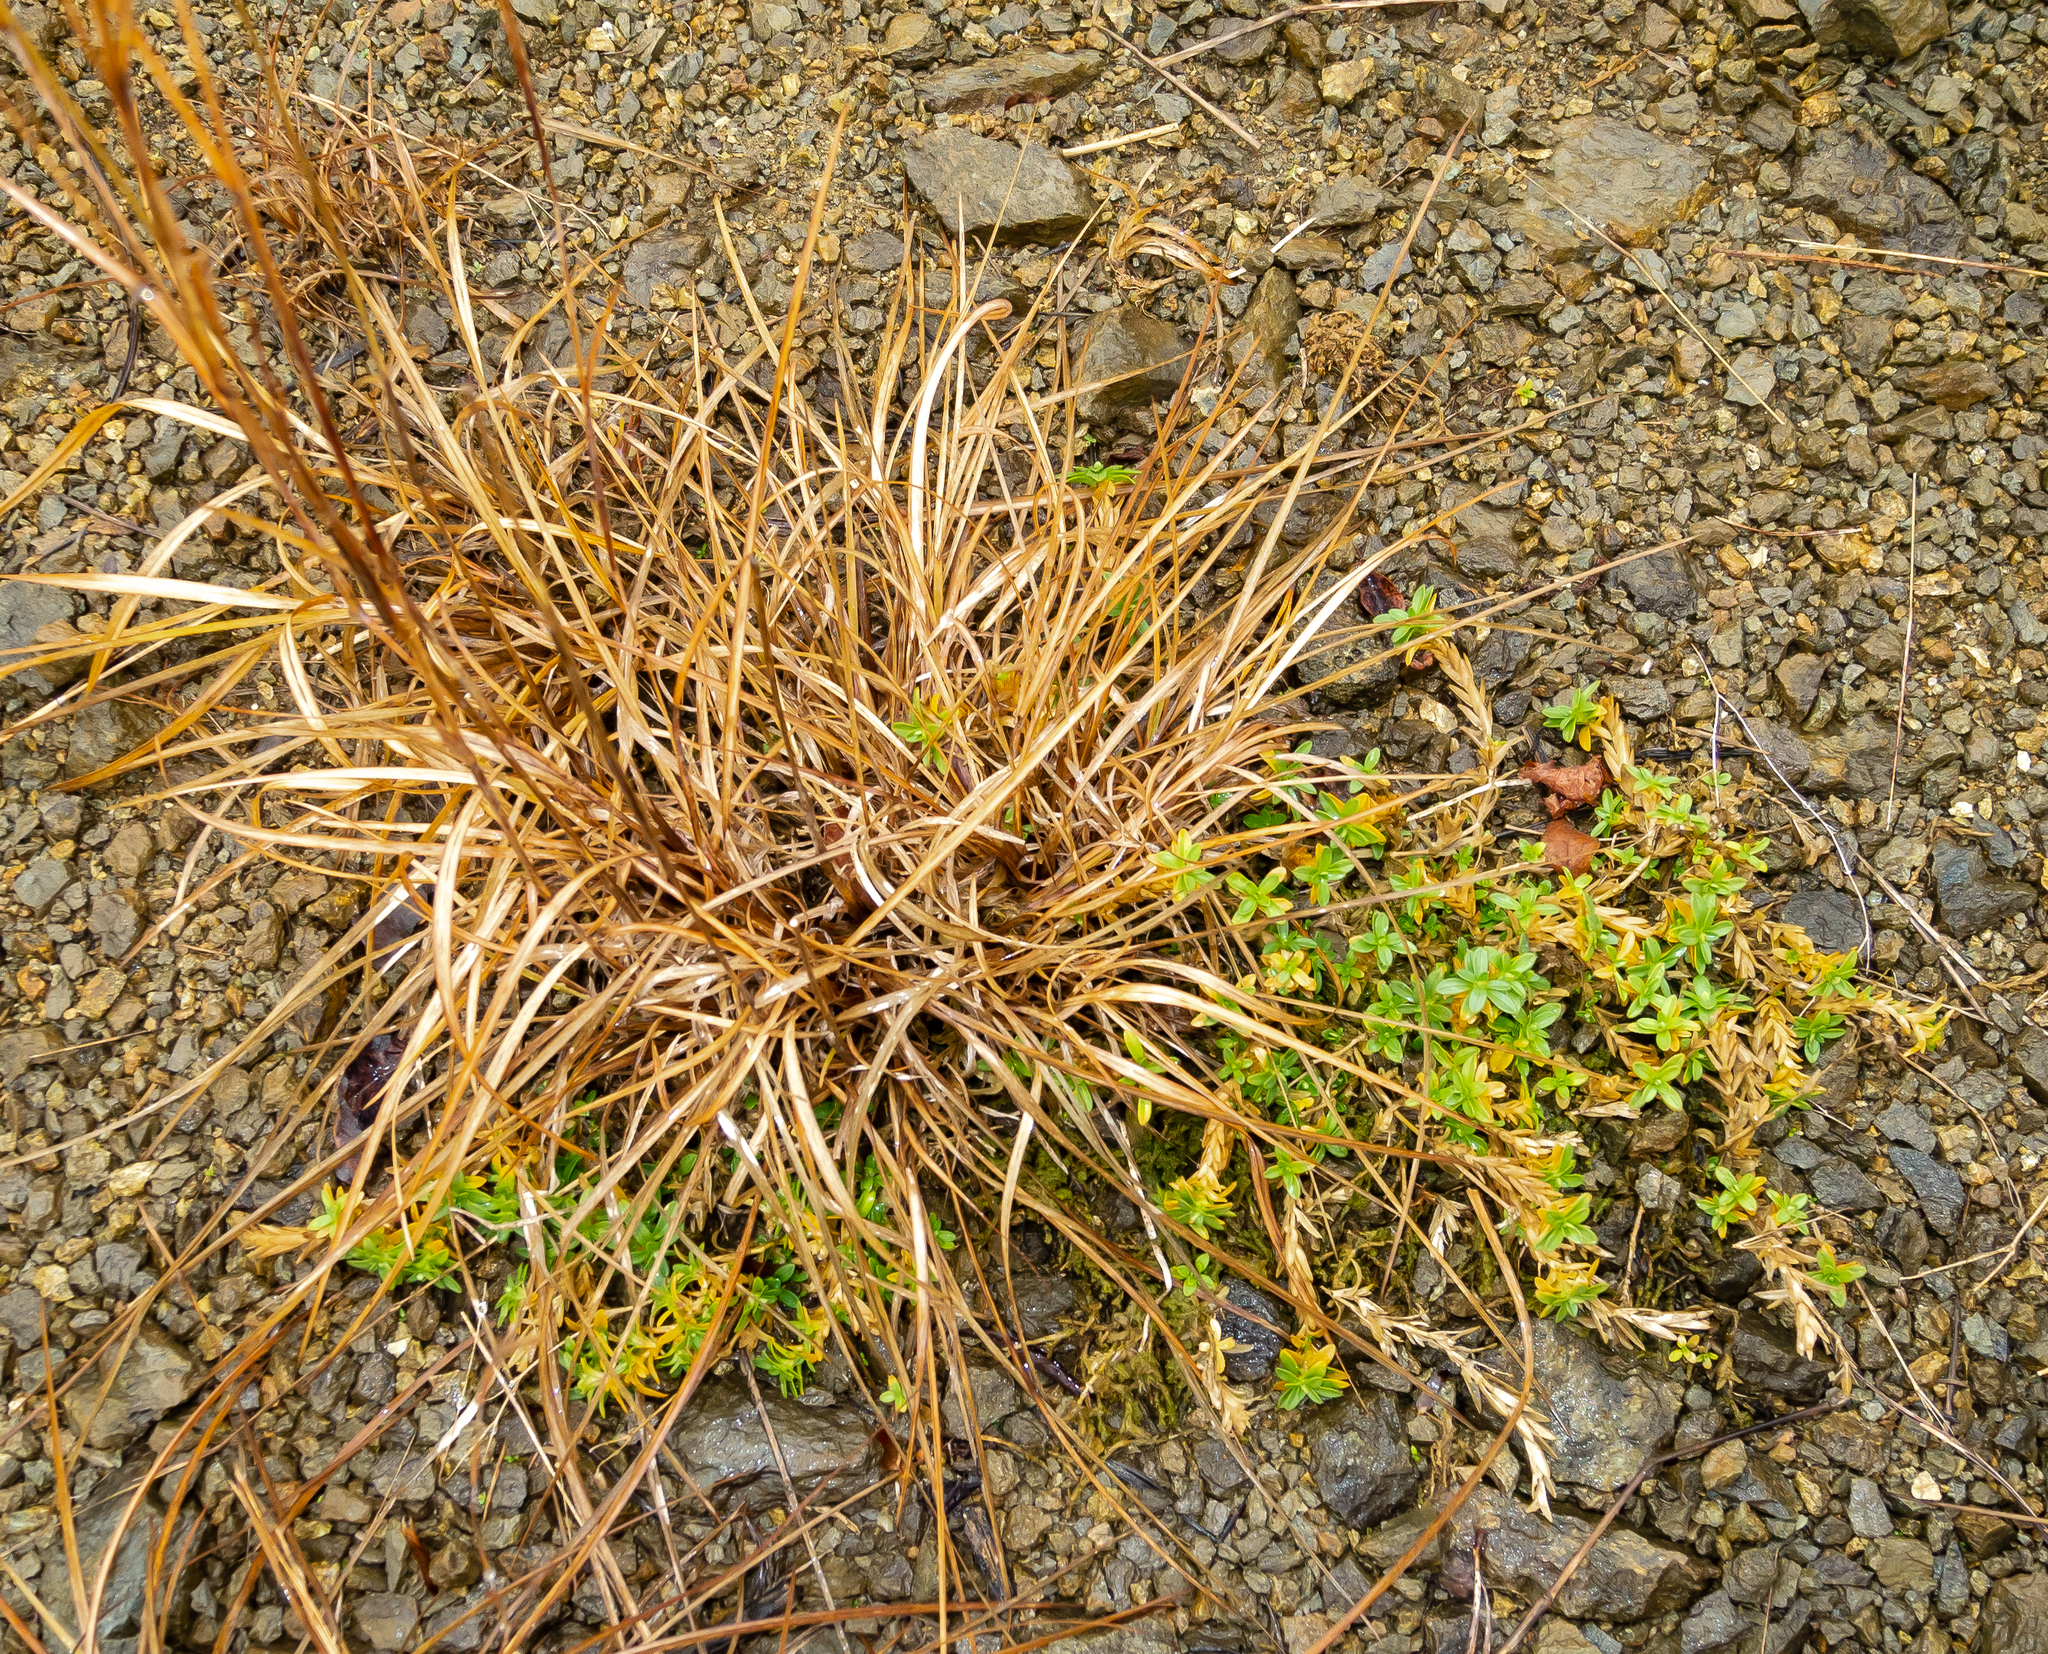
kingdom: Plantae
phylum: Tracheophyta
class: Magnoliopsida
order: Caryophyllales
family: Caryophyllaceae
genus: Cerastium
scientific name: Cerastium velutinum
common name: Barren chickweed
